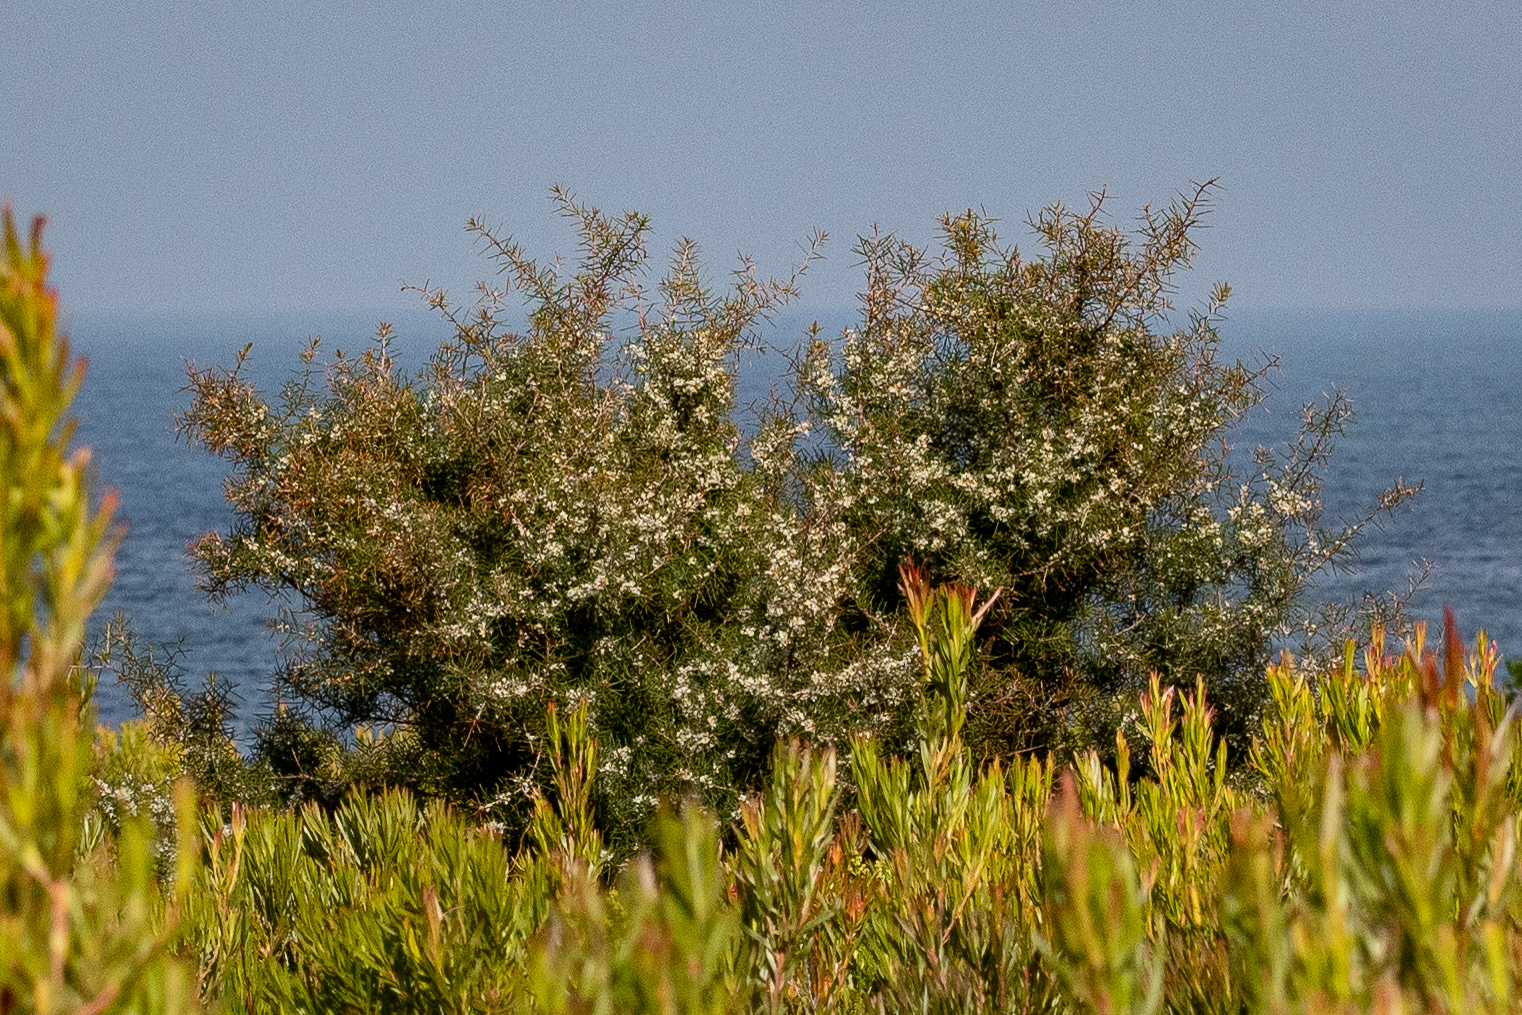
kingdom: Plantae
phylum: Tracheophyta
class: Magnoliopsida
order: Proteales
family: Proteaceae
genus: Hakea
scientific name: Hakea sericea
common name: Needle bush
